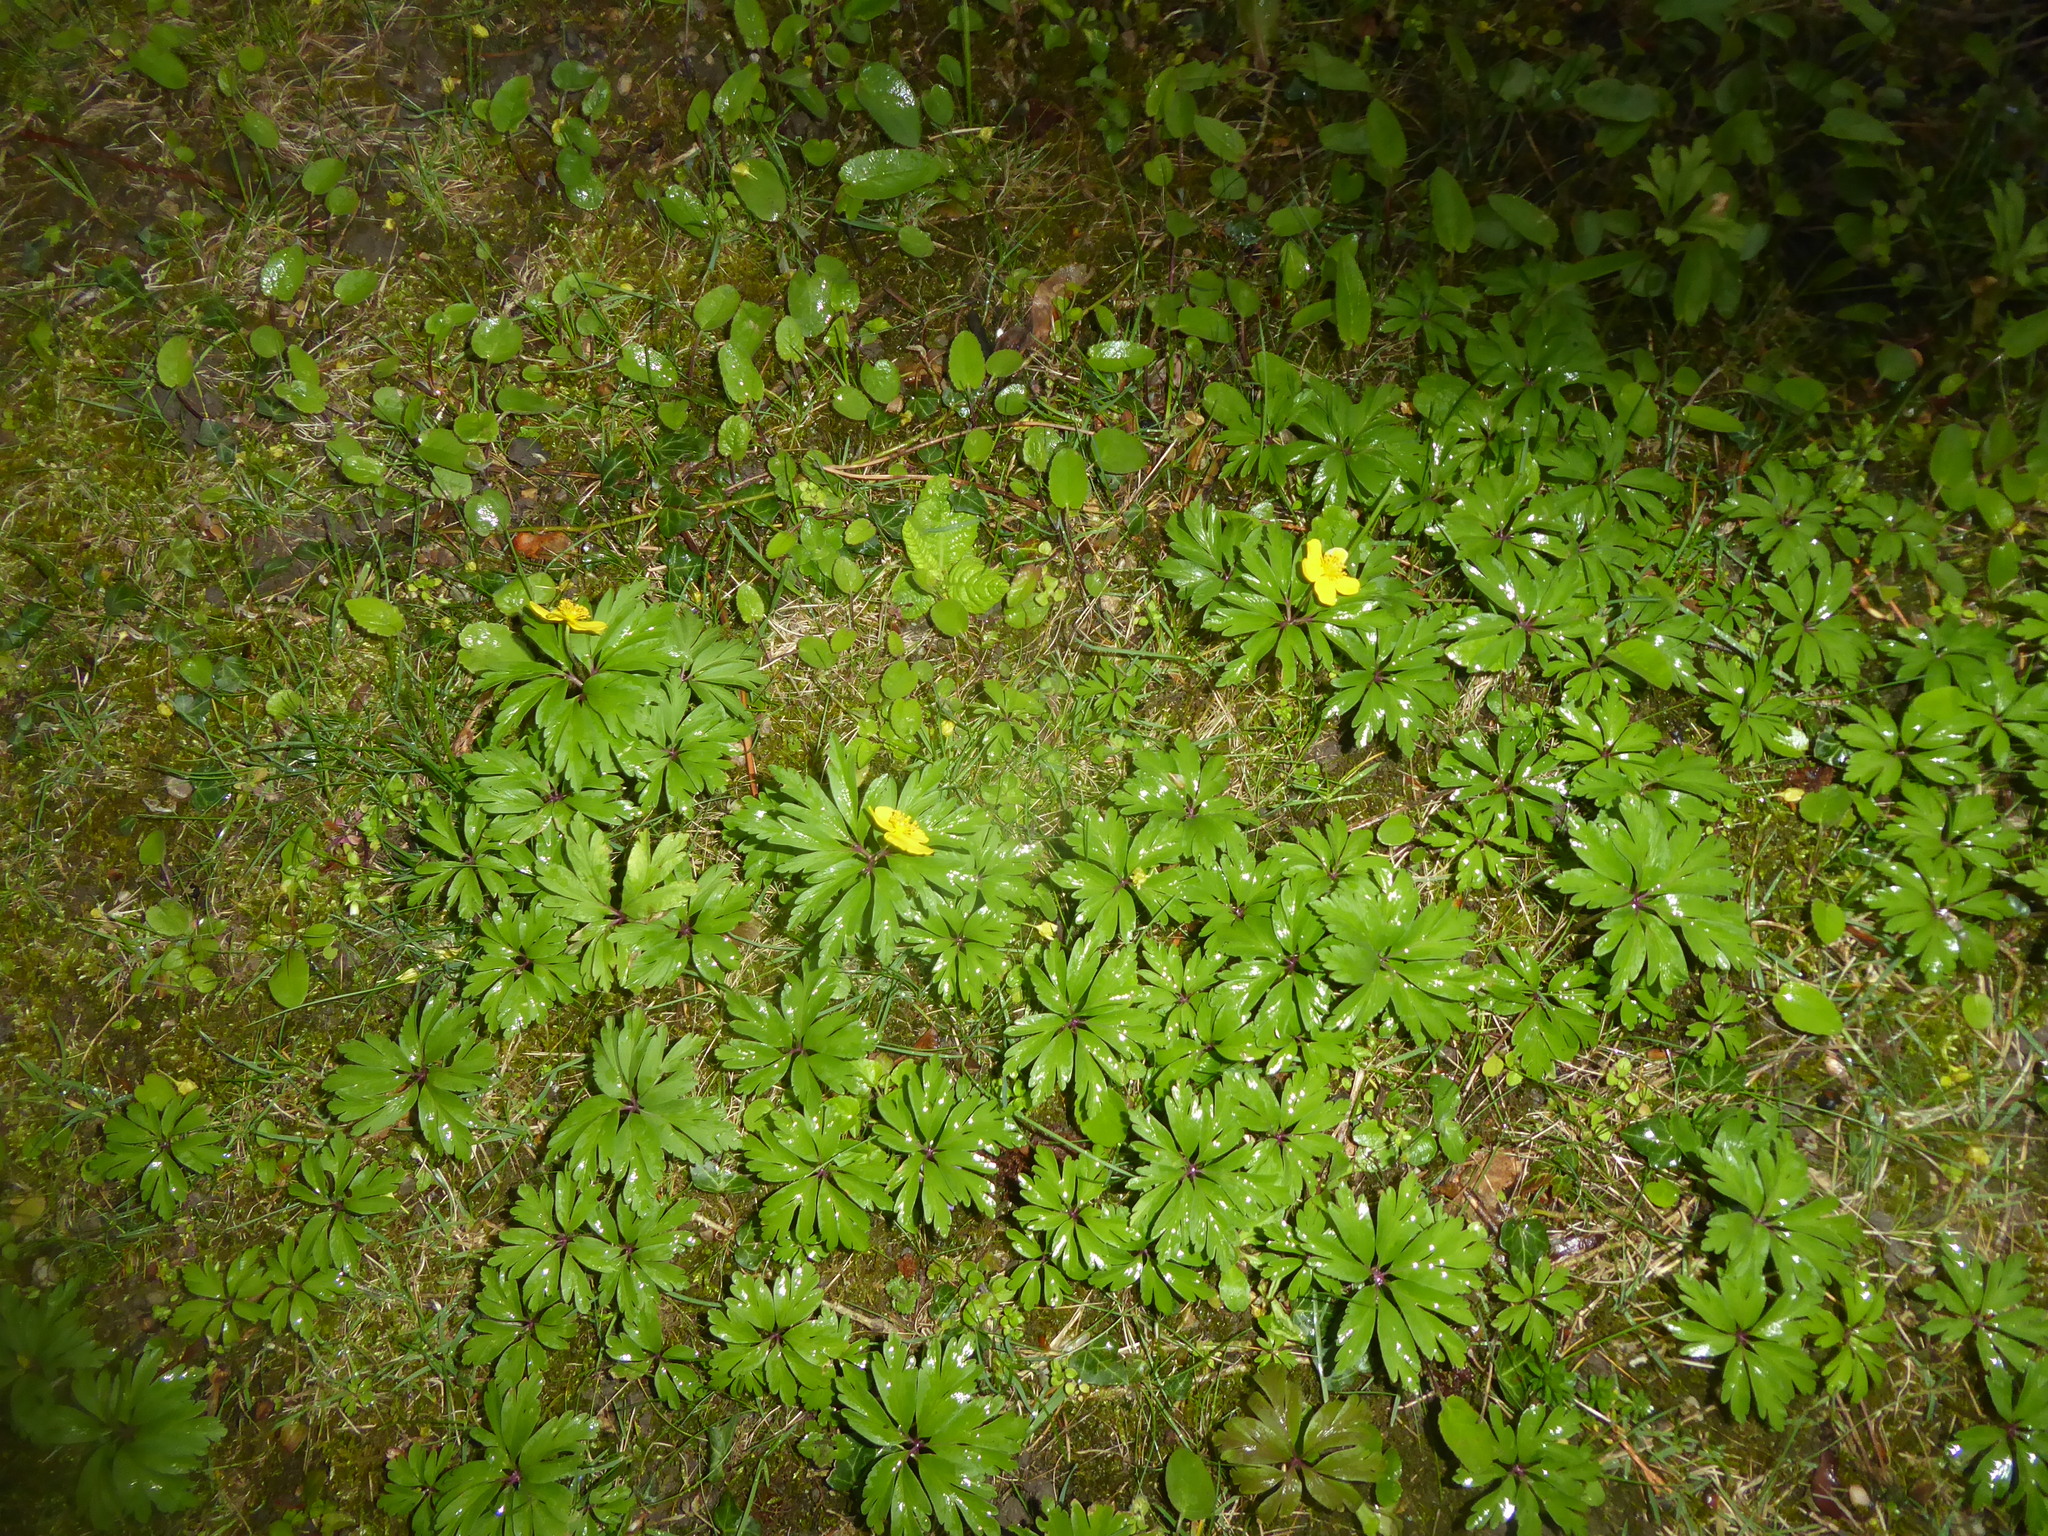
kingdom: Plantae
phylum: Tracheophyta
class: Magnoliopsida
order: Ranunculales
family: Ranunculaceae
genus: Anemone
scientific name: Anemone ranunculoides
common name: Yellow anemone
